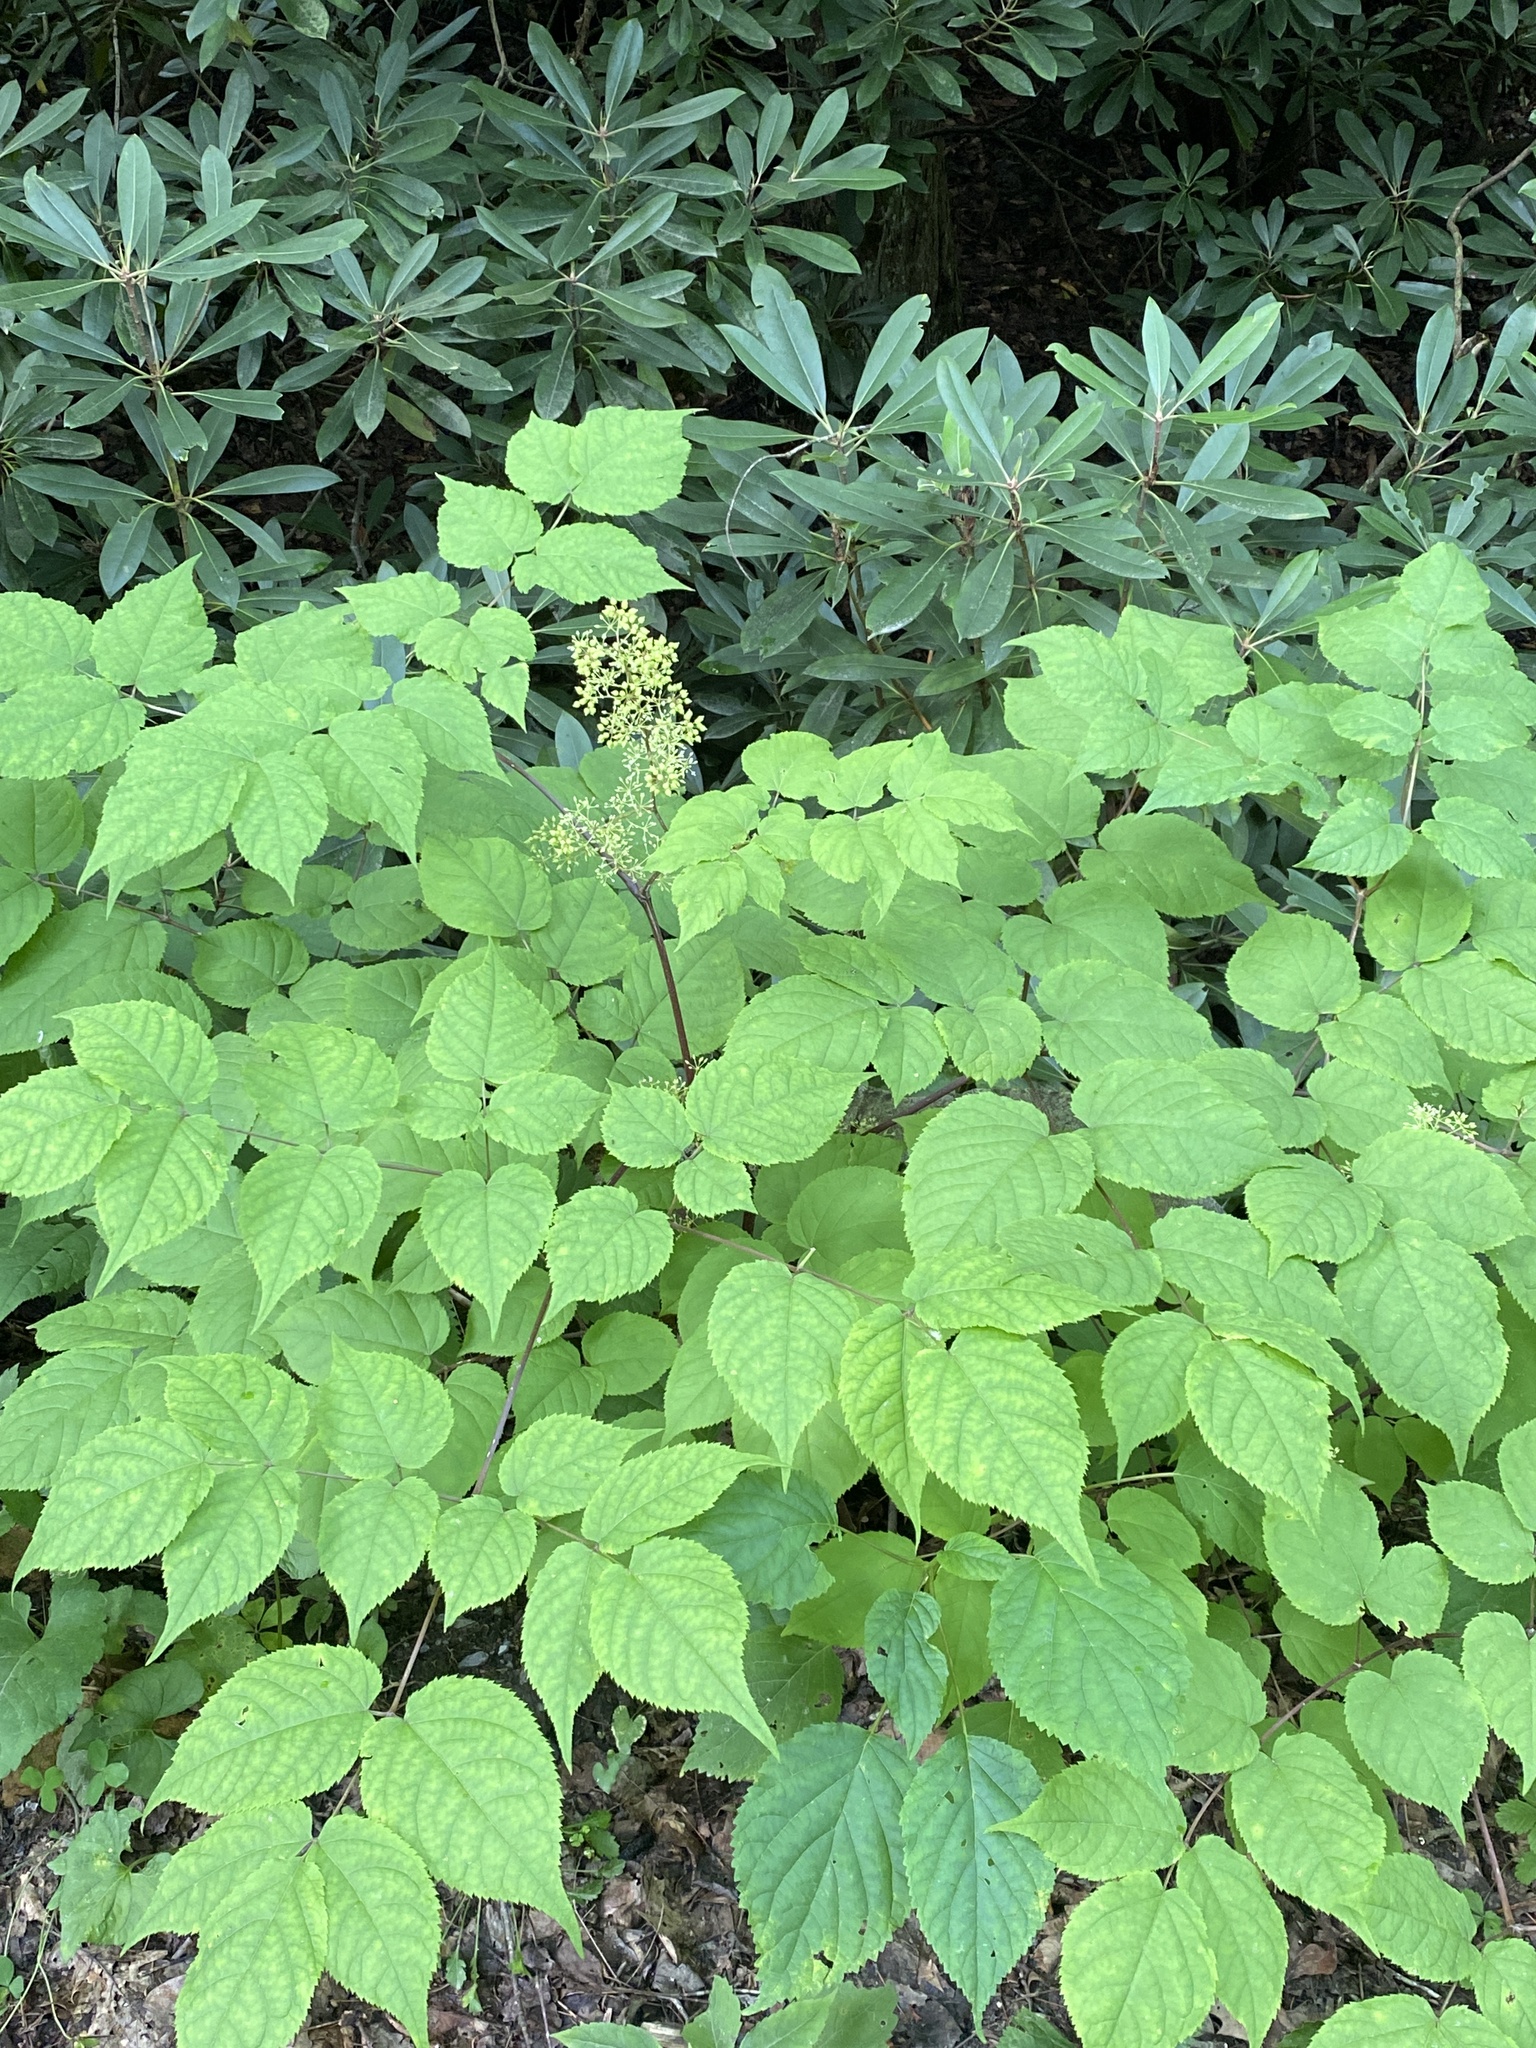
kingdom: Plantae
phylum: Tracheophyta
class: Magnoliopsida
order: Apiales
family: Araliaceae
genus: Aralia
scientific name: Aralia racemosa
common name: American-spikenard
